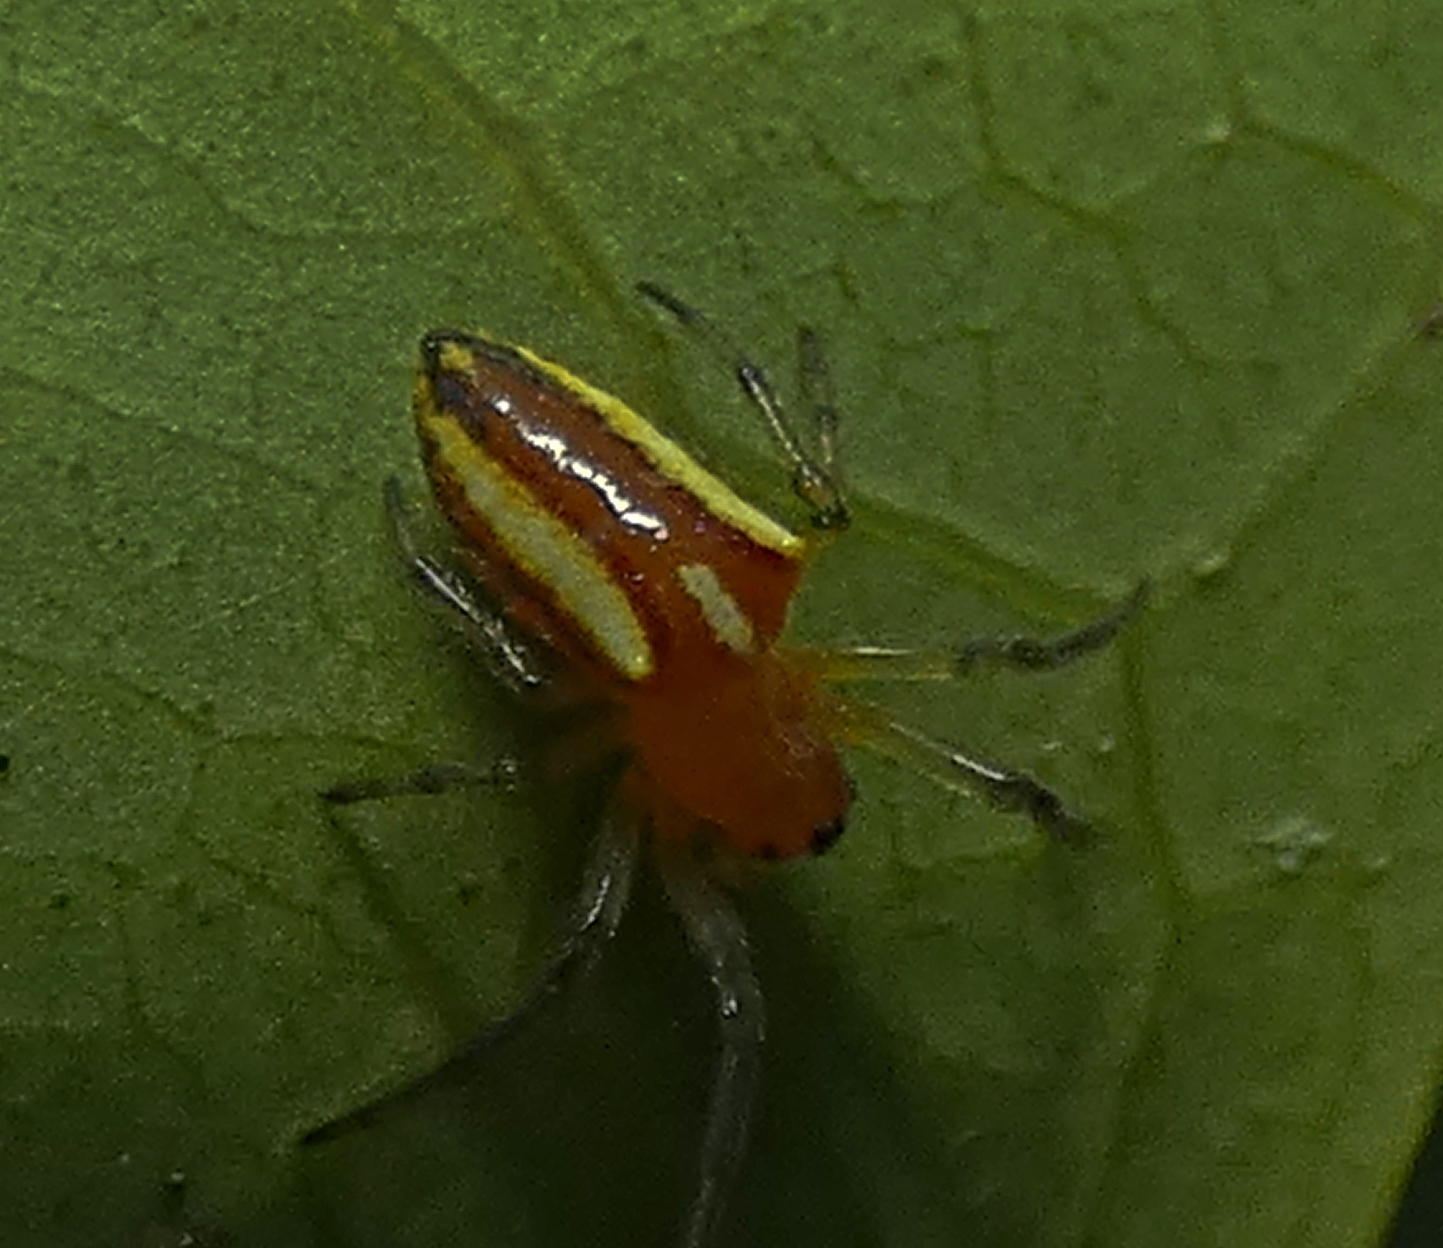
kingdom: Animalia
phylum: Arthropoda
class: Arachnida
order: Araneae
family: Araneidae
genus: Alpaida
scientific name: Alpaida bicornuta
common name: Orb weavers
